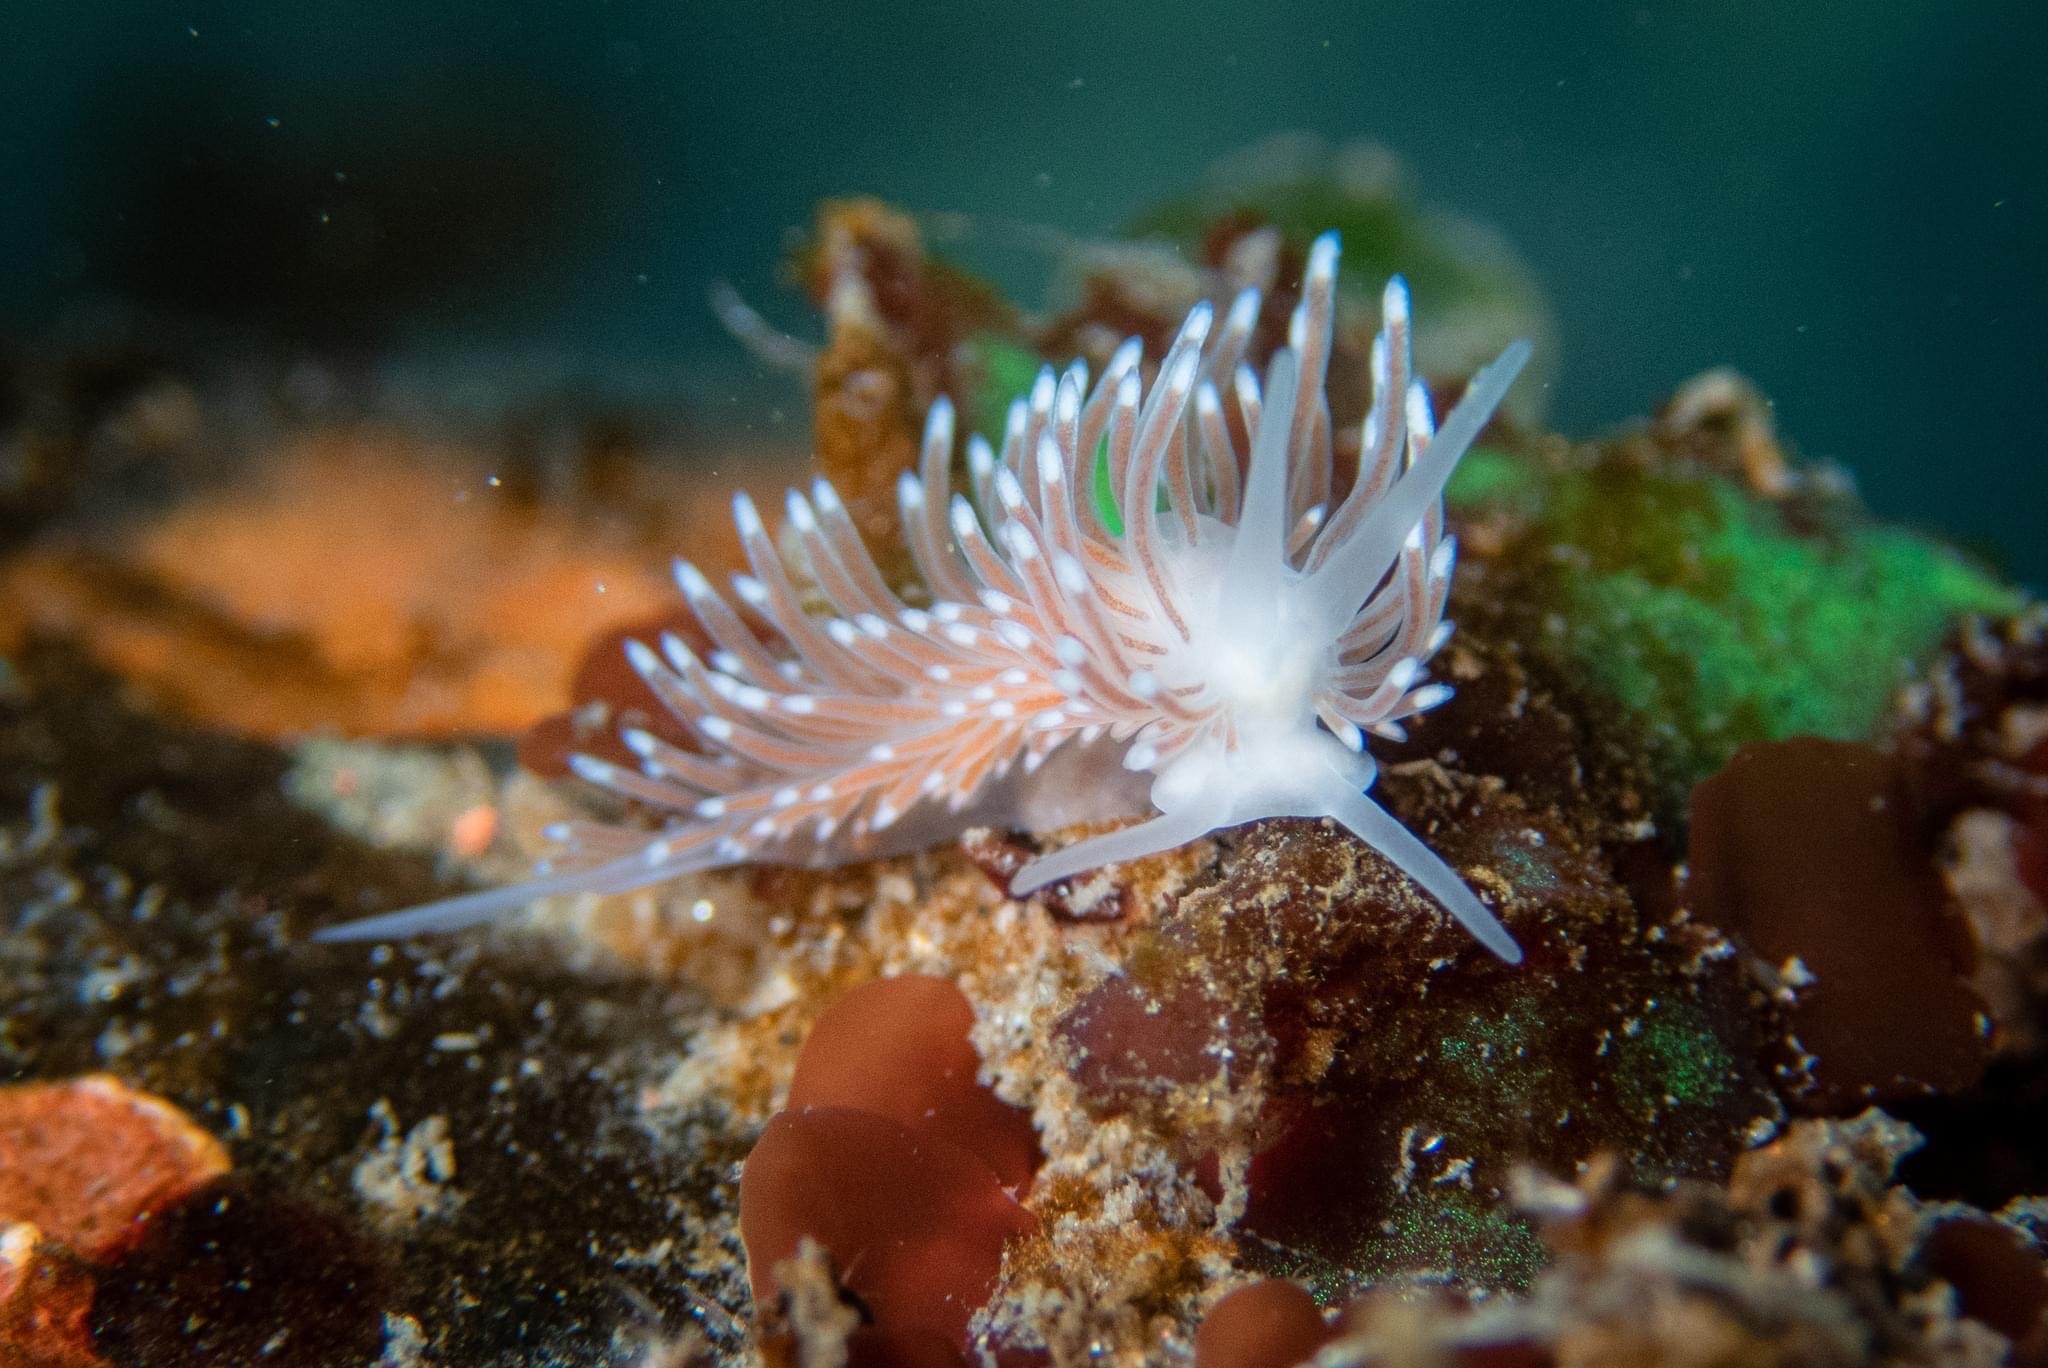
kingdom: Animalia
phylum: Mollusca
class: Gastropoda
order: Nudibranchia
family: Cuthonidae
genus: Cuthona
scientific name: Cuthona divae
